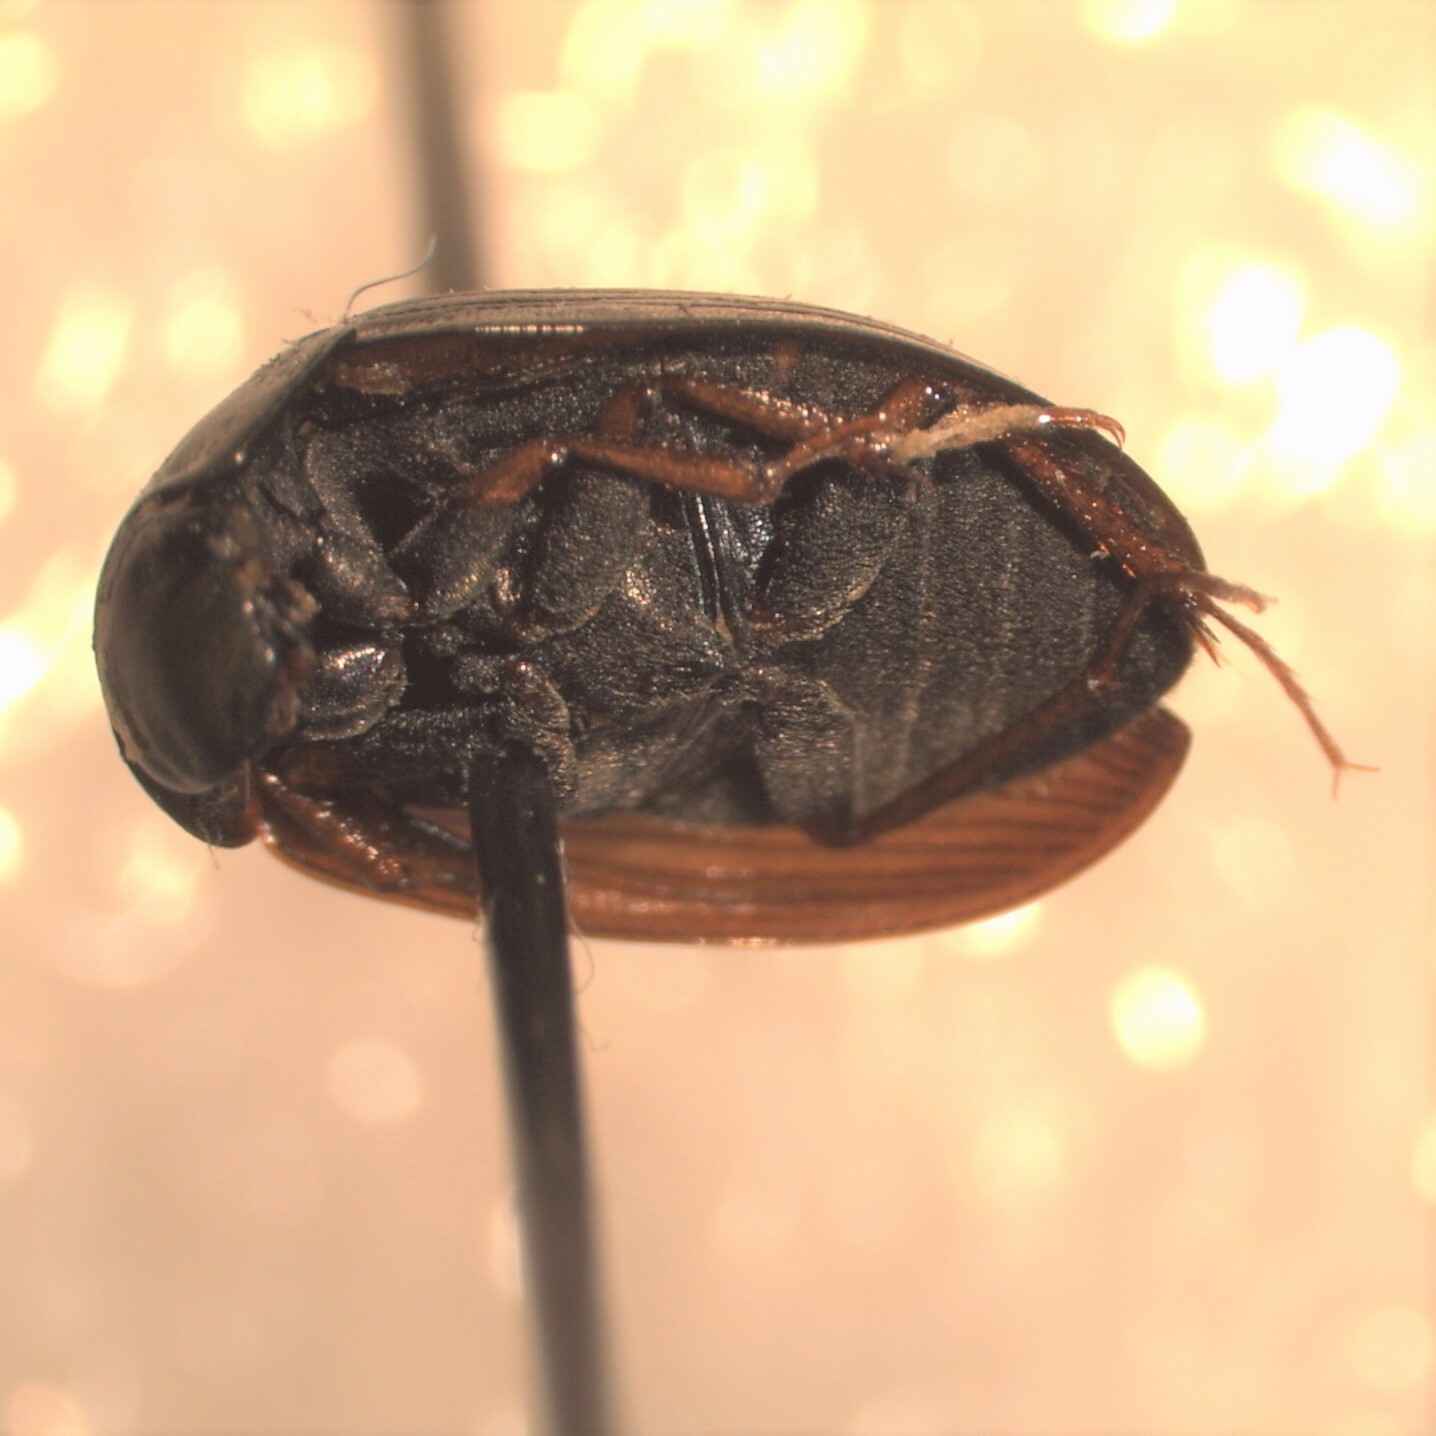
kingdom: Animalia
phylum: Arthropoda
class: Insecta
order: Coleoptera
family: Hydrophilidae
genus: Hydrobius
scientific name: Hydrobius fuscipes
